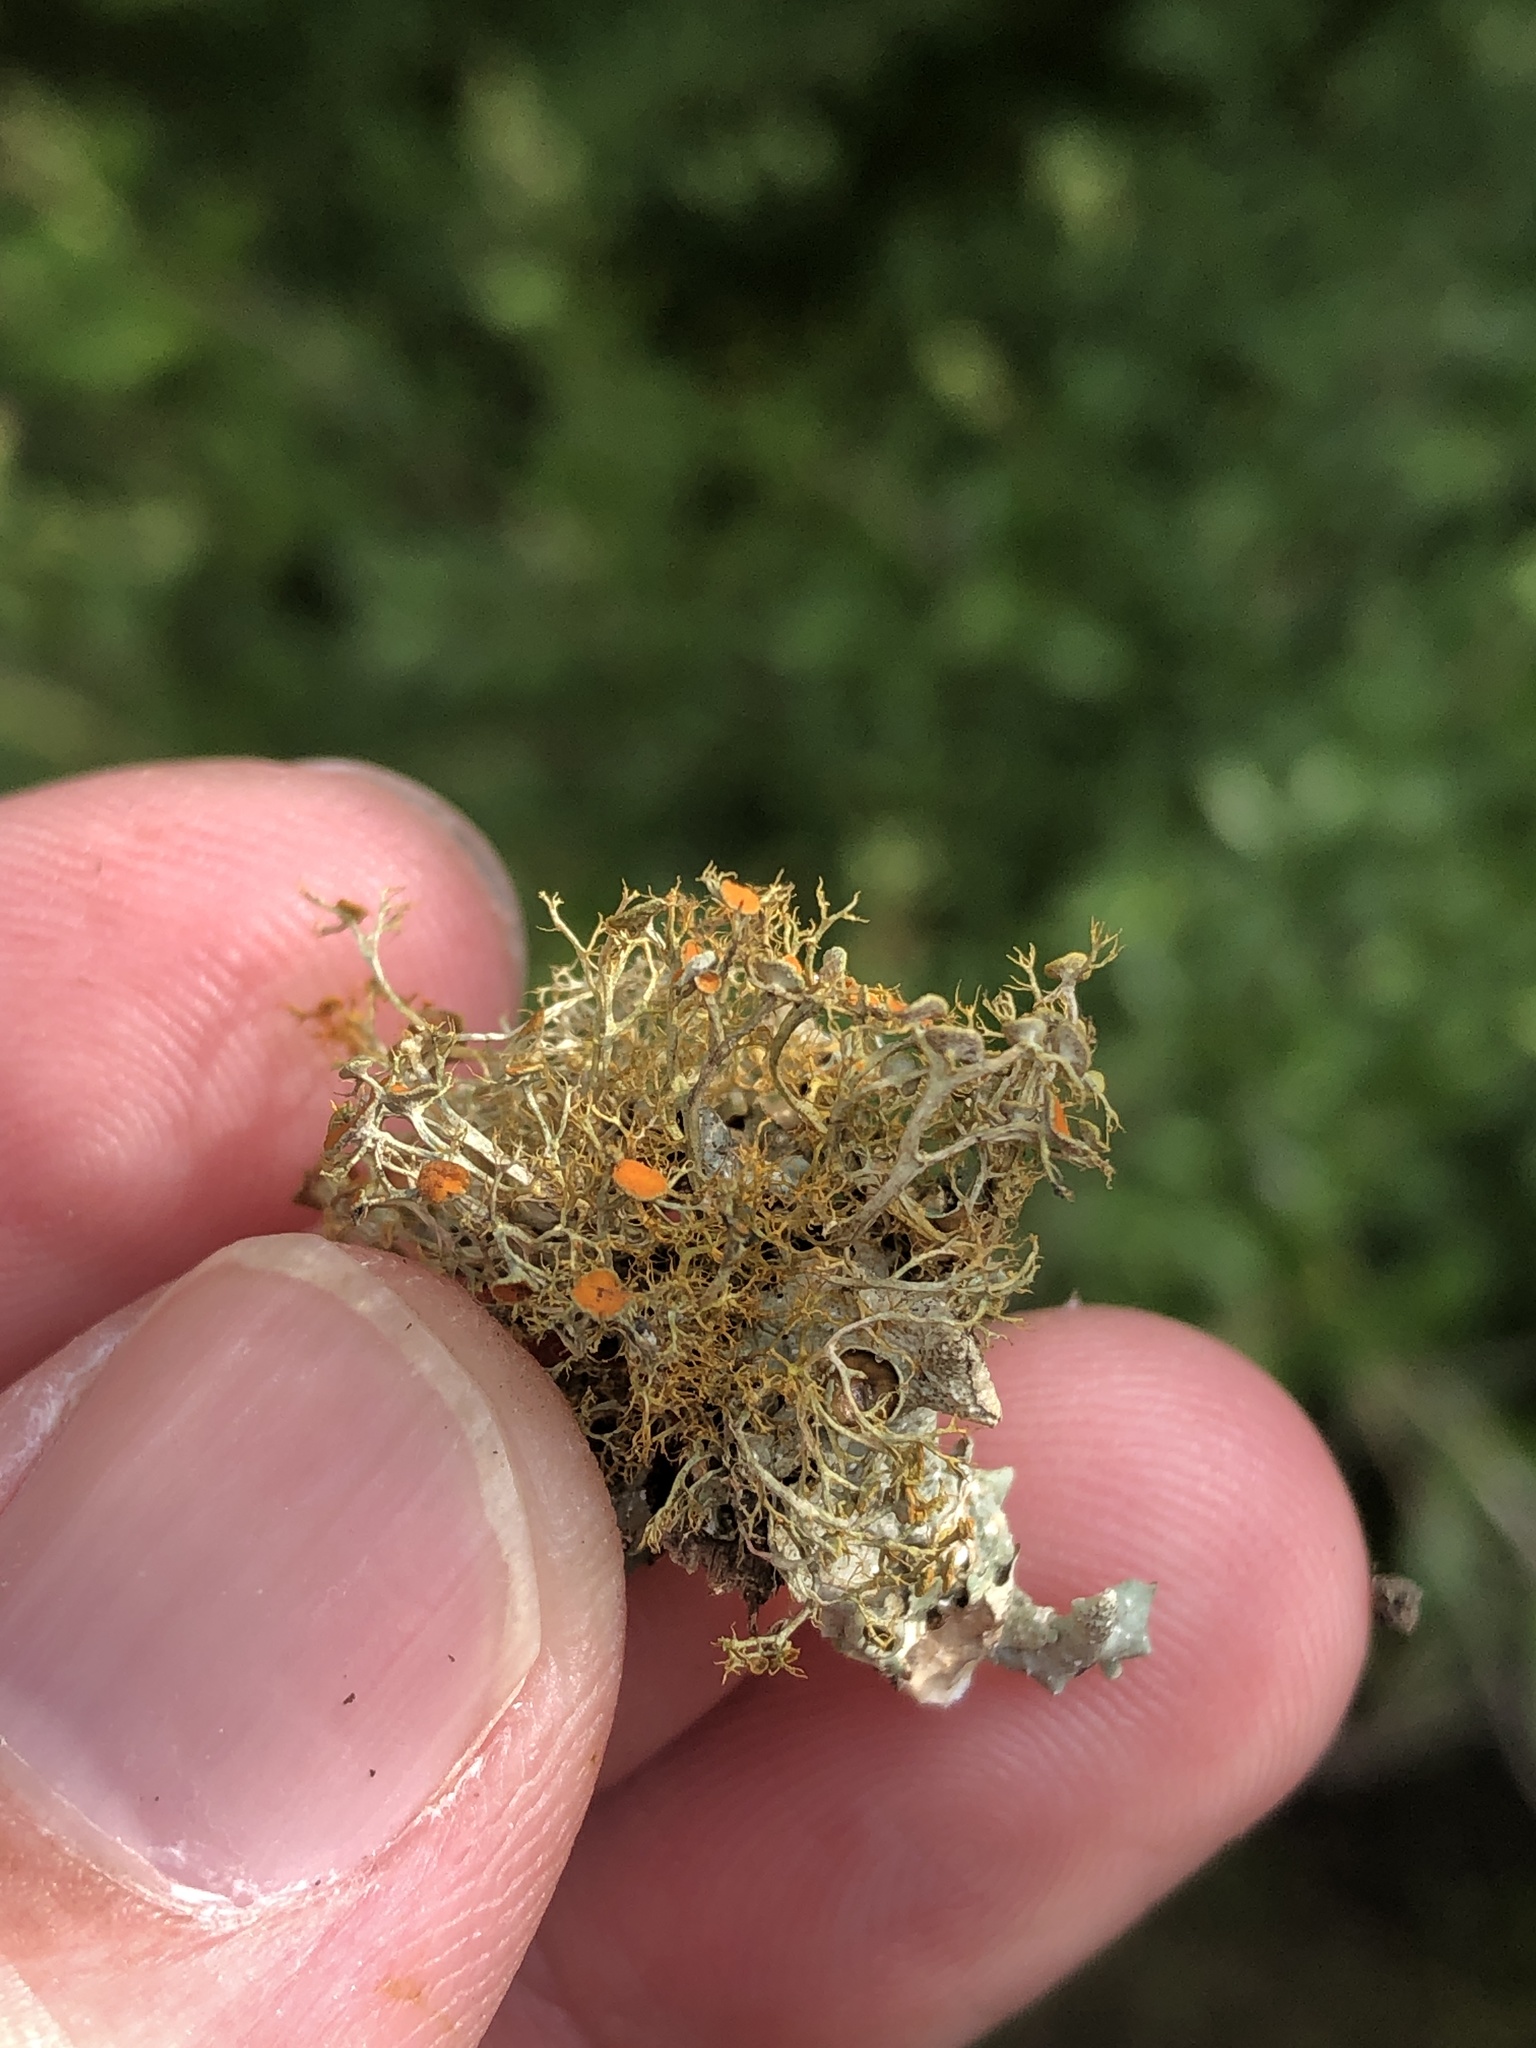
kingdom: Fungi
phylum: Ascomycota
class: Lecanoromycetes
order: Teloschistales
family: Teloschistaceae
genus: Teloschistes
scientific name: Teloschistes exilis
